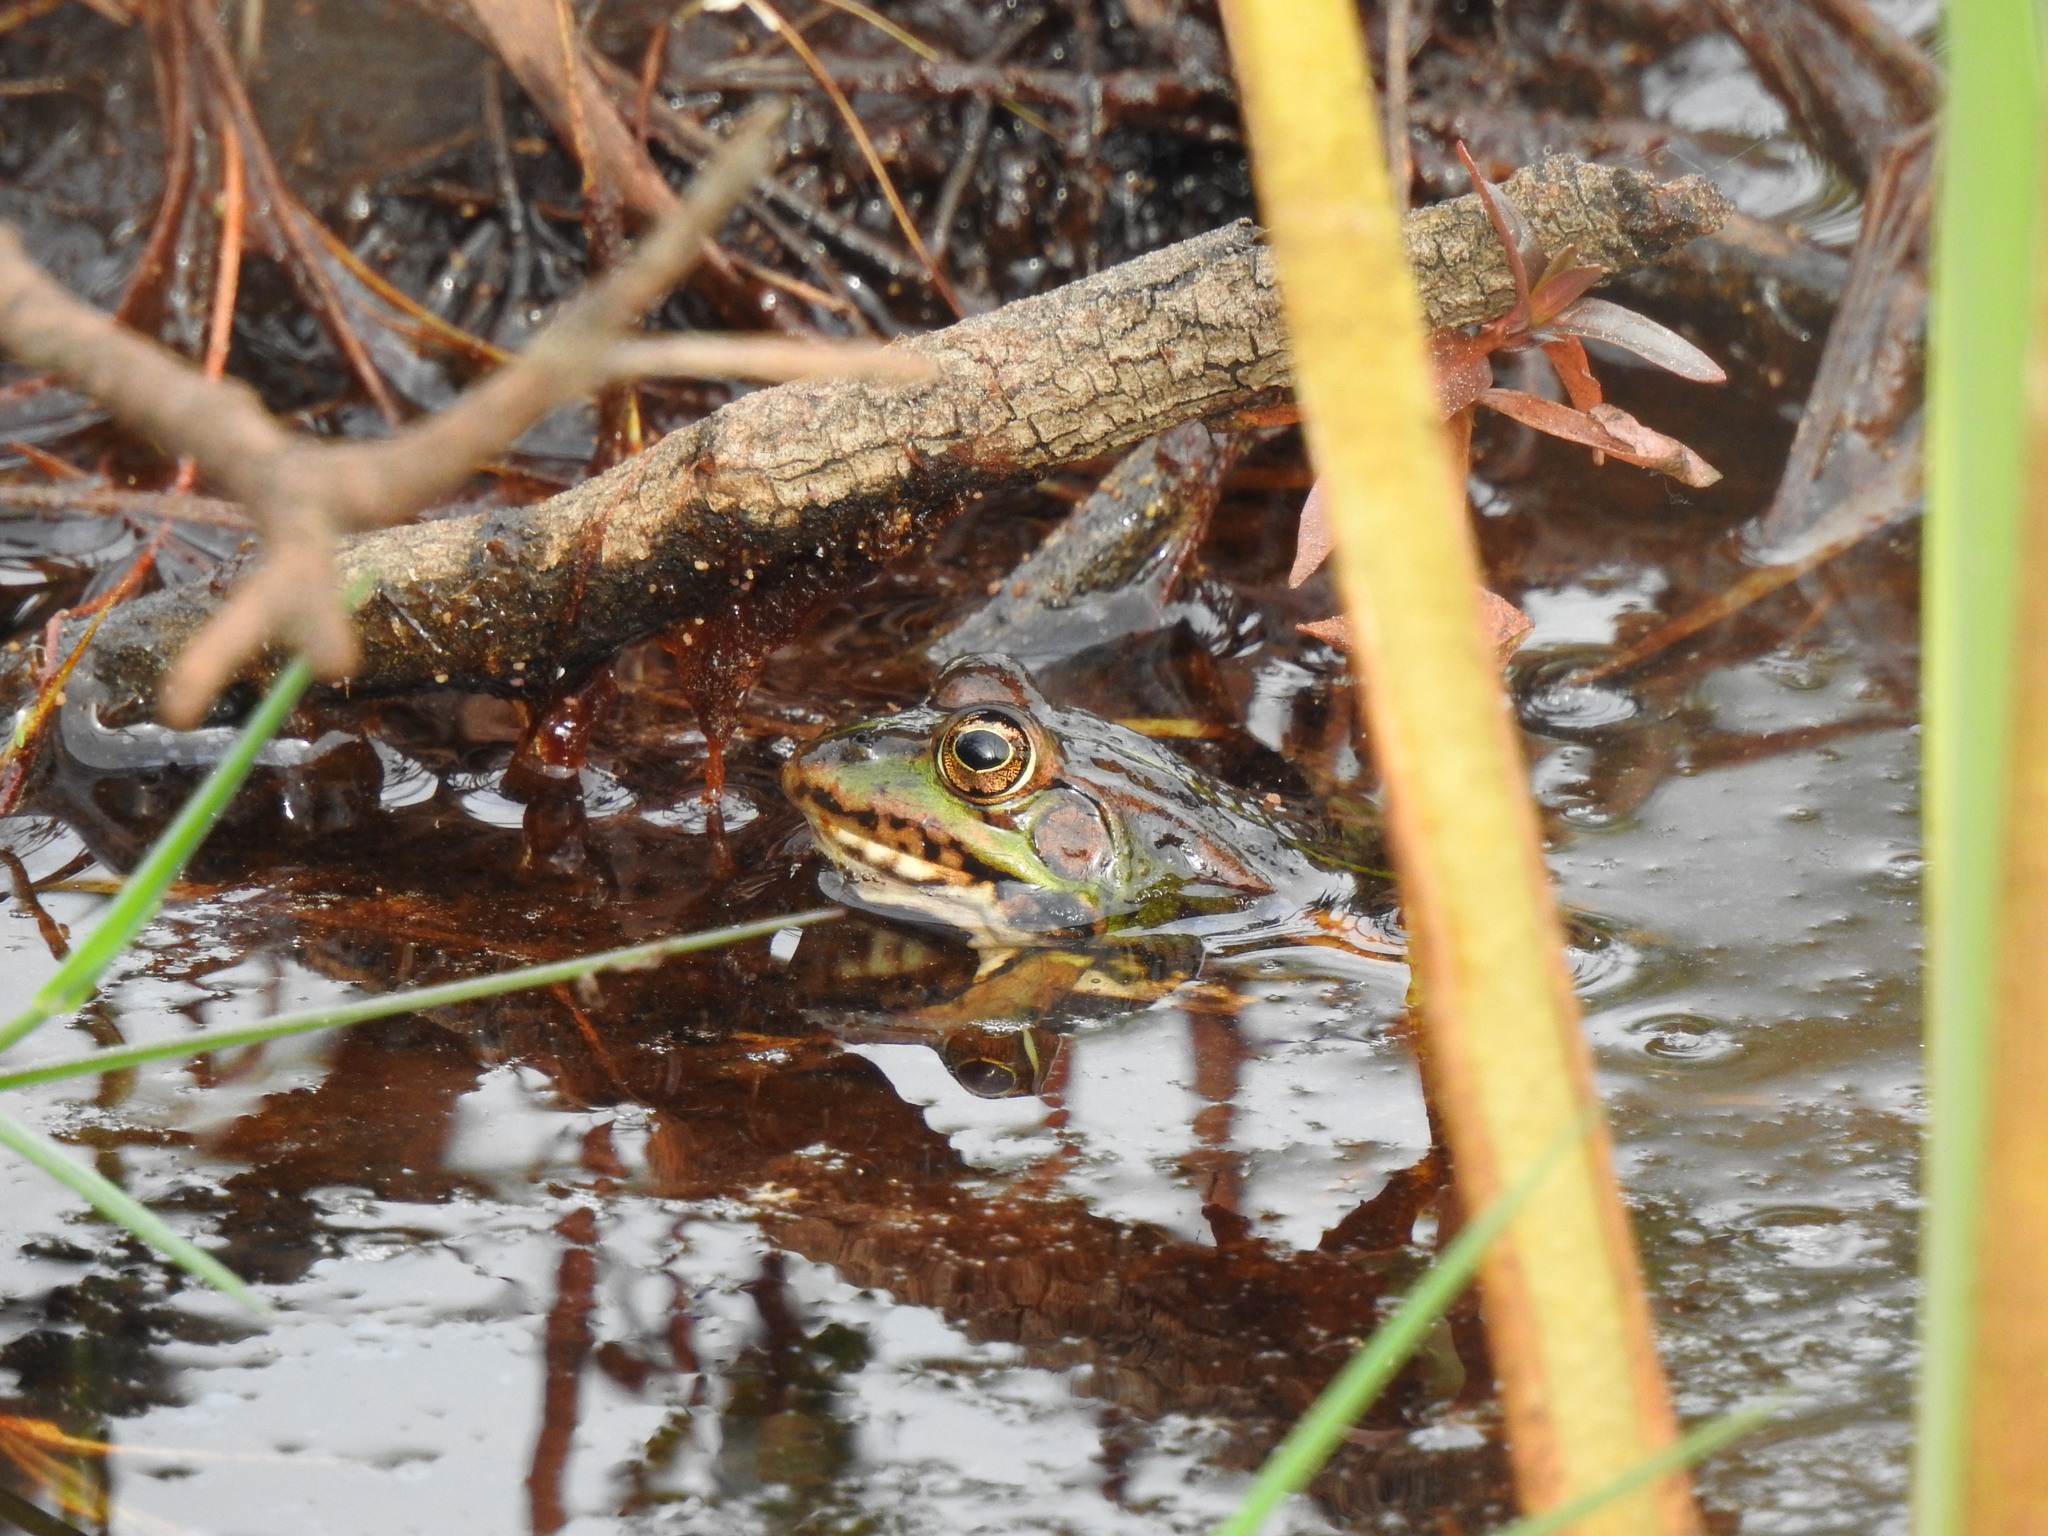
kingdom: Animalia
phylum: Chordata
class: Amphibia
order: Anura
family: Ranidae
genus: Pelophylax
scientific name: Pelophylax perezi
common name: Perez's frog
